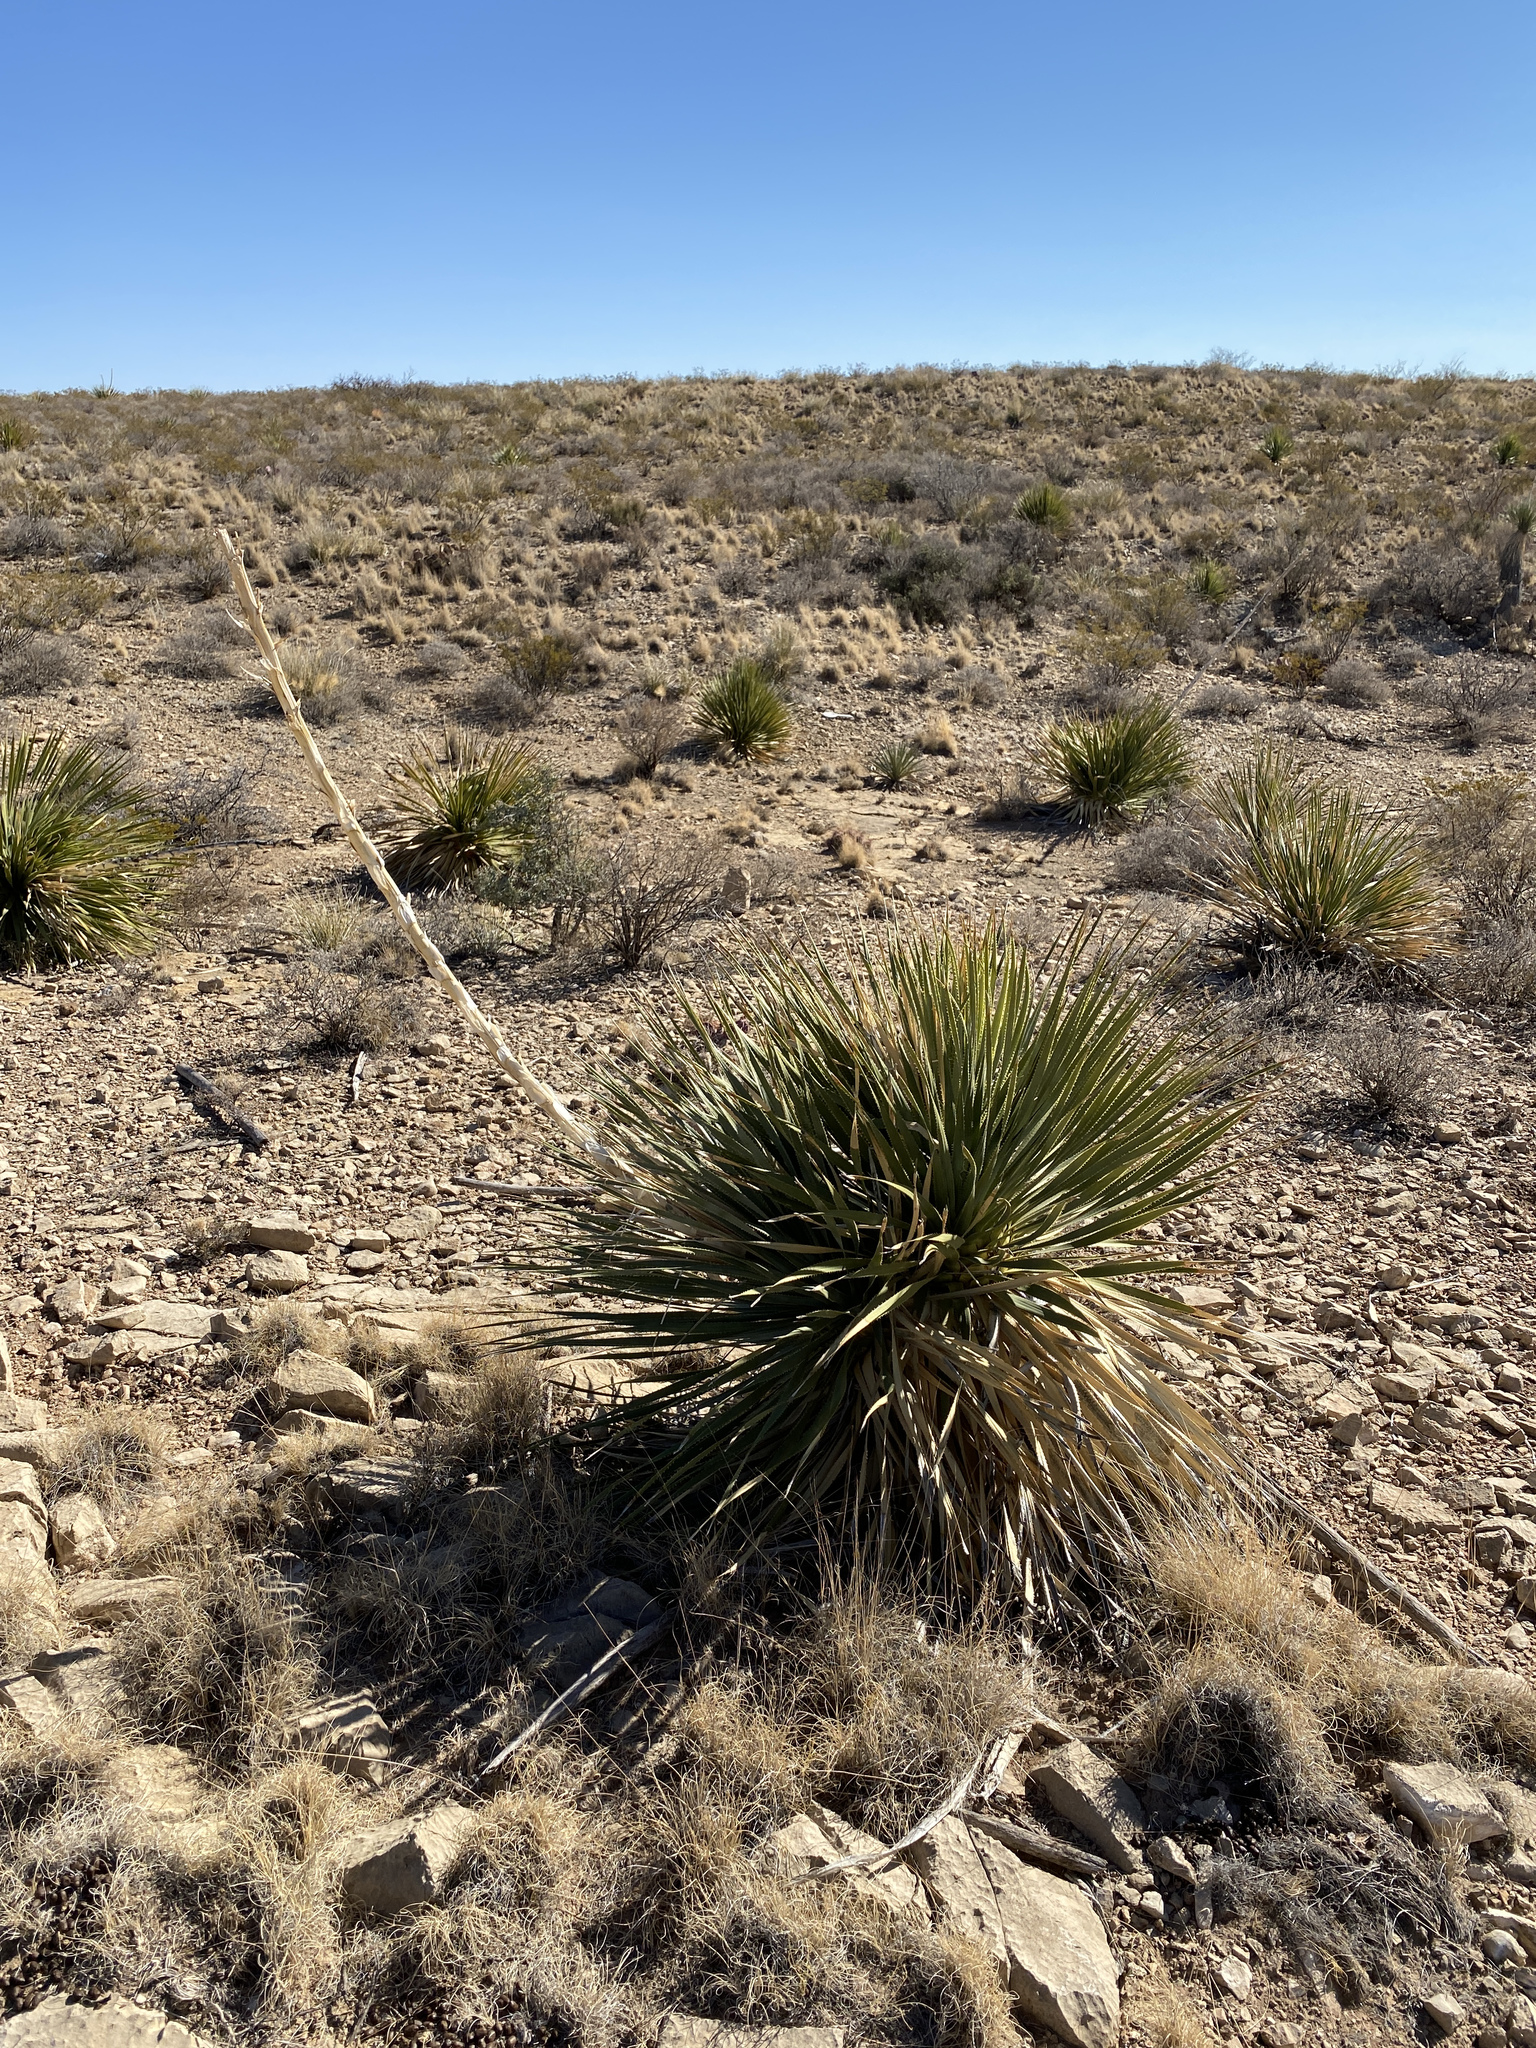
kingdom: Plantae
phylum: Tracheophyta
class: Liliopsida
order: Asparagales
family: Asparagaceae
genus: Dasylirion
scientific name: Dasylirion wheeleri
